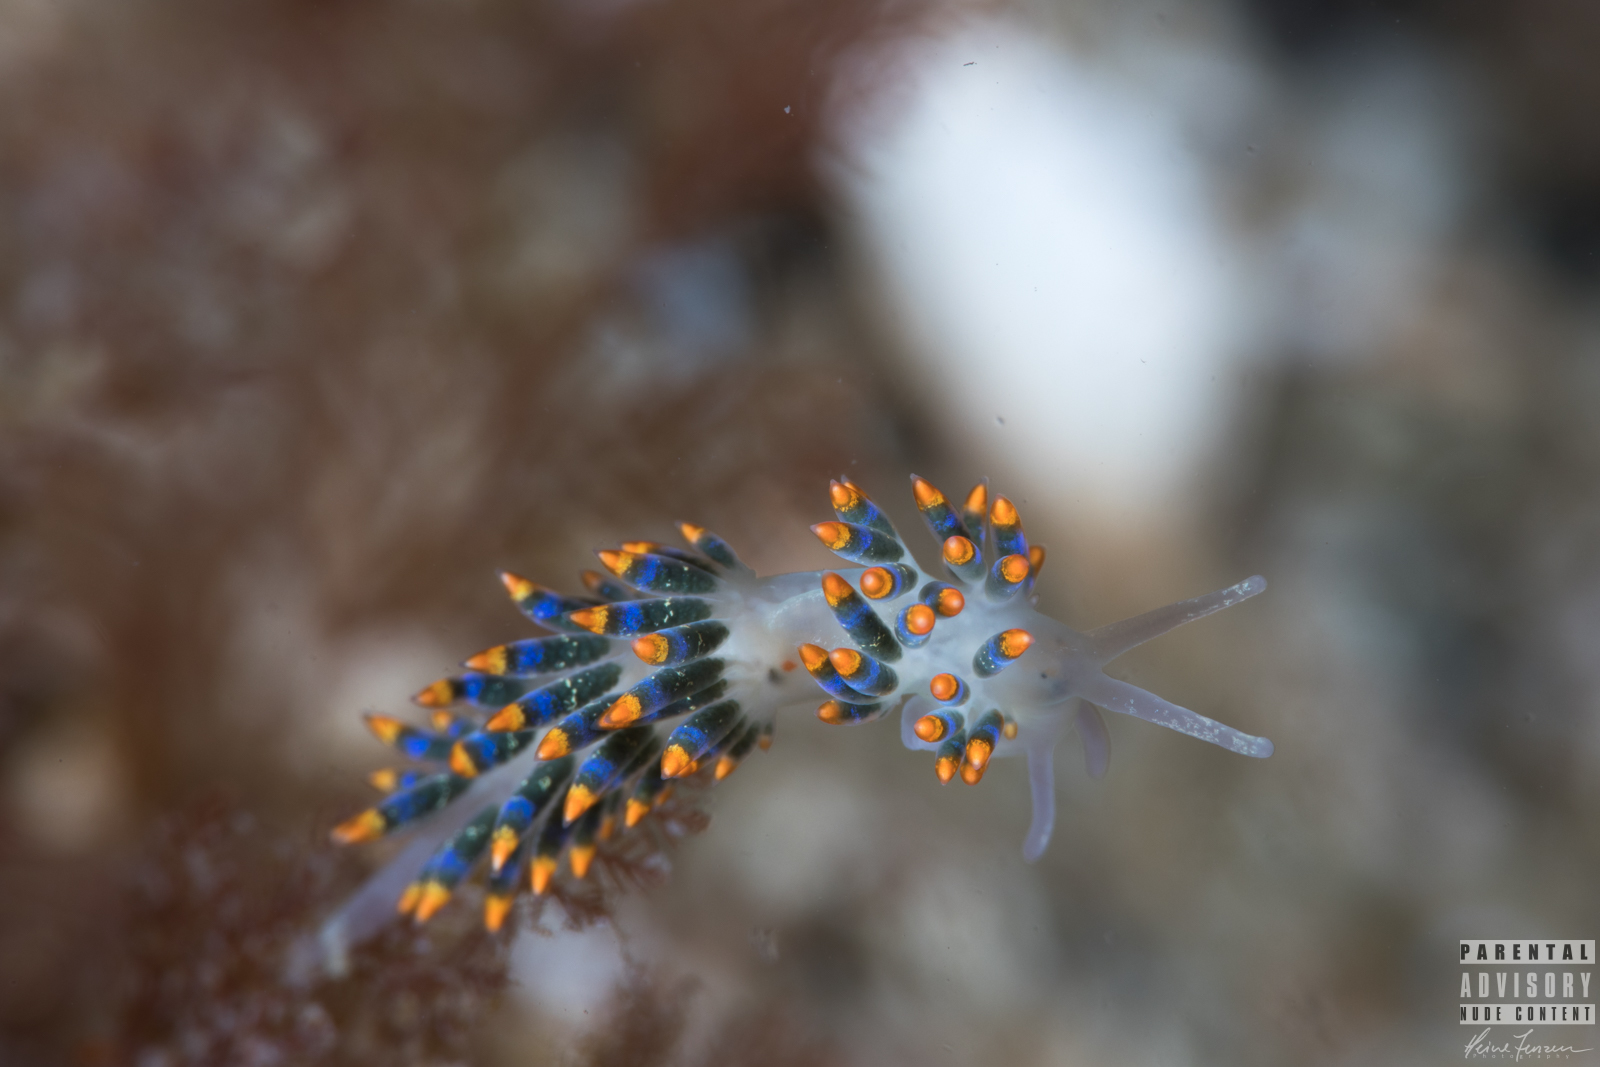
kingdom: Animalia
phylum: Mollusca
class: Gastropoda
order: Nudibranchia
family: Trinchesiidae
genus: Trinchesia
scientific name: Trinchesia cuanensis
